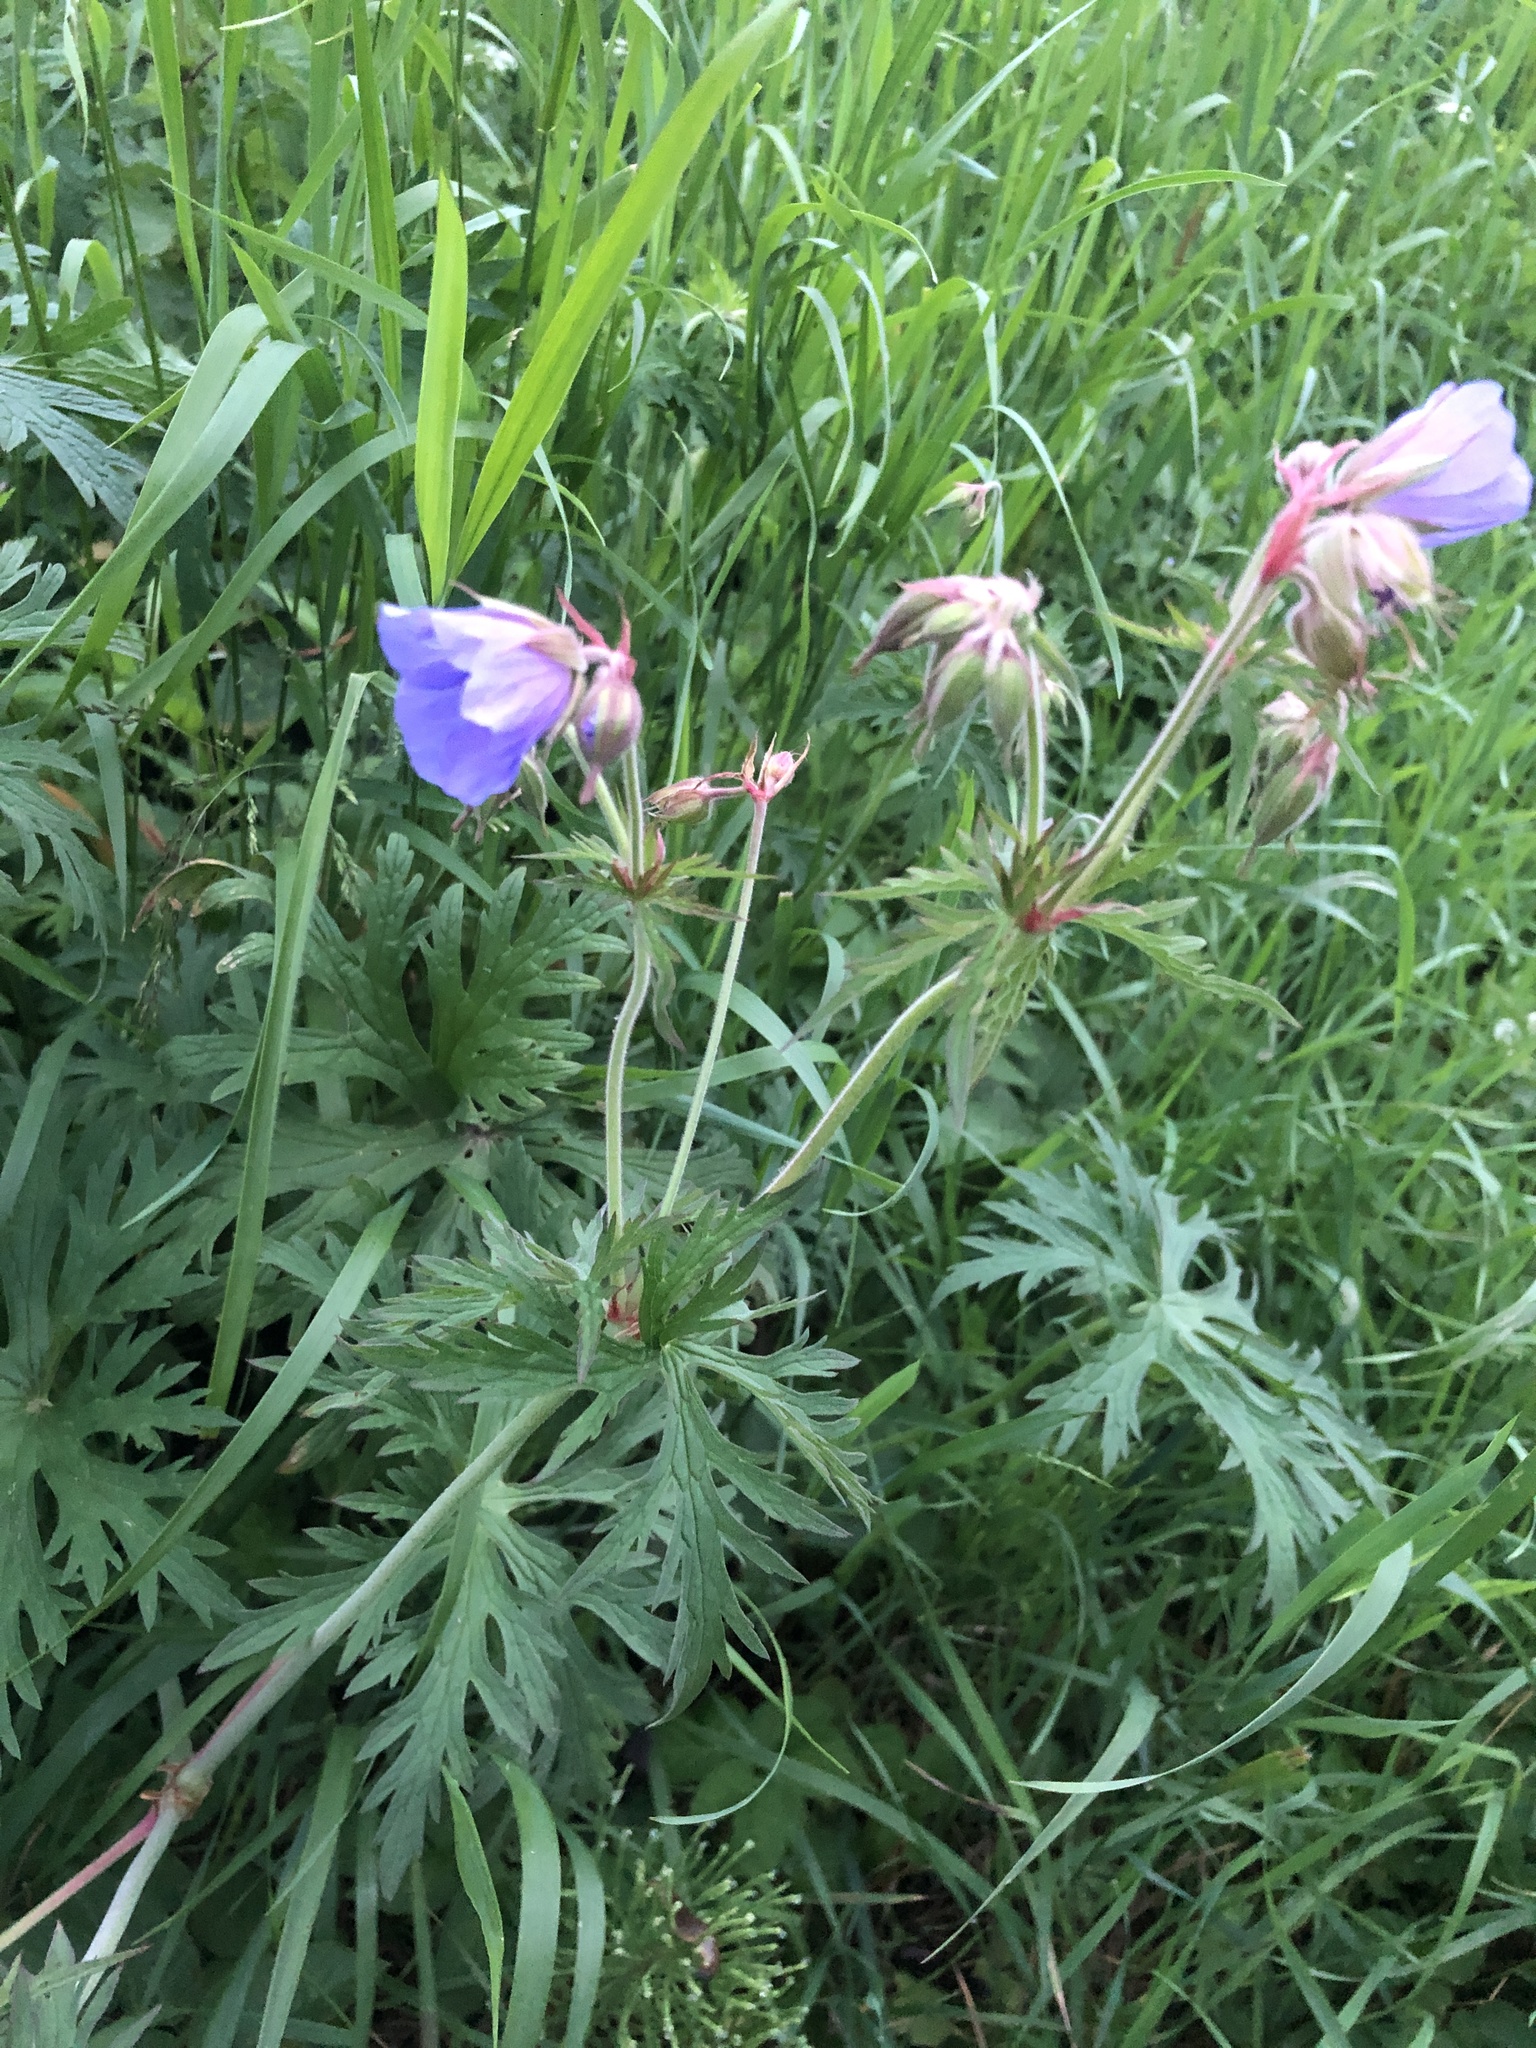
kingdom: Plantae
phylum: Tracheophyta
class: Magnoliopsida
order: Geraniales
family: Geraniaceae
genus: Geranium
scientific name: Geranium pratense
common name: Meadow crane's-bill
